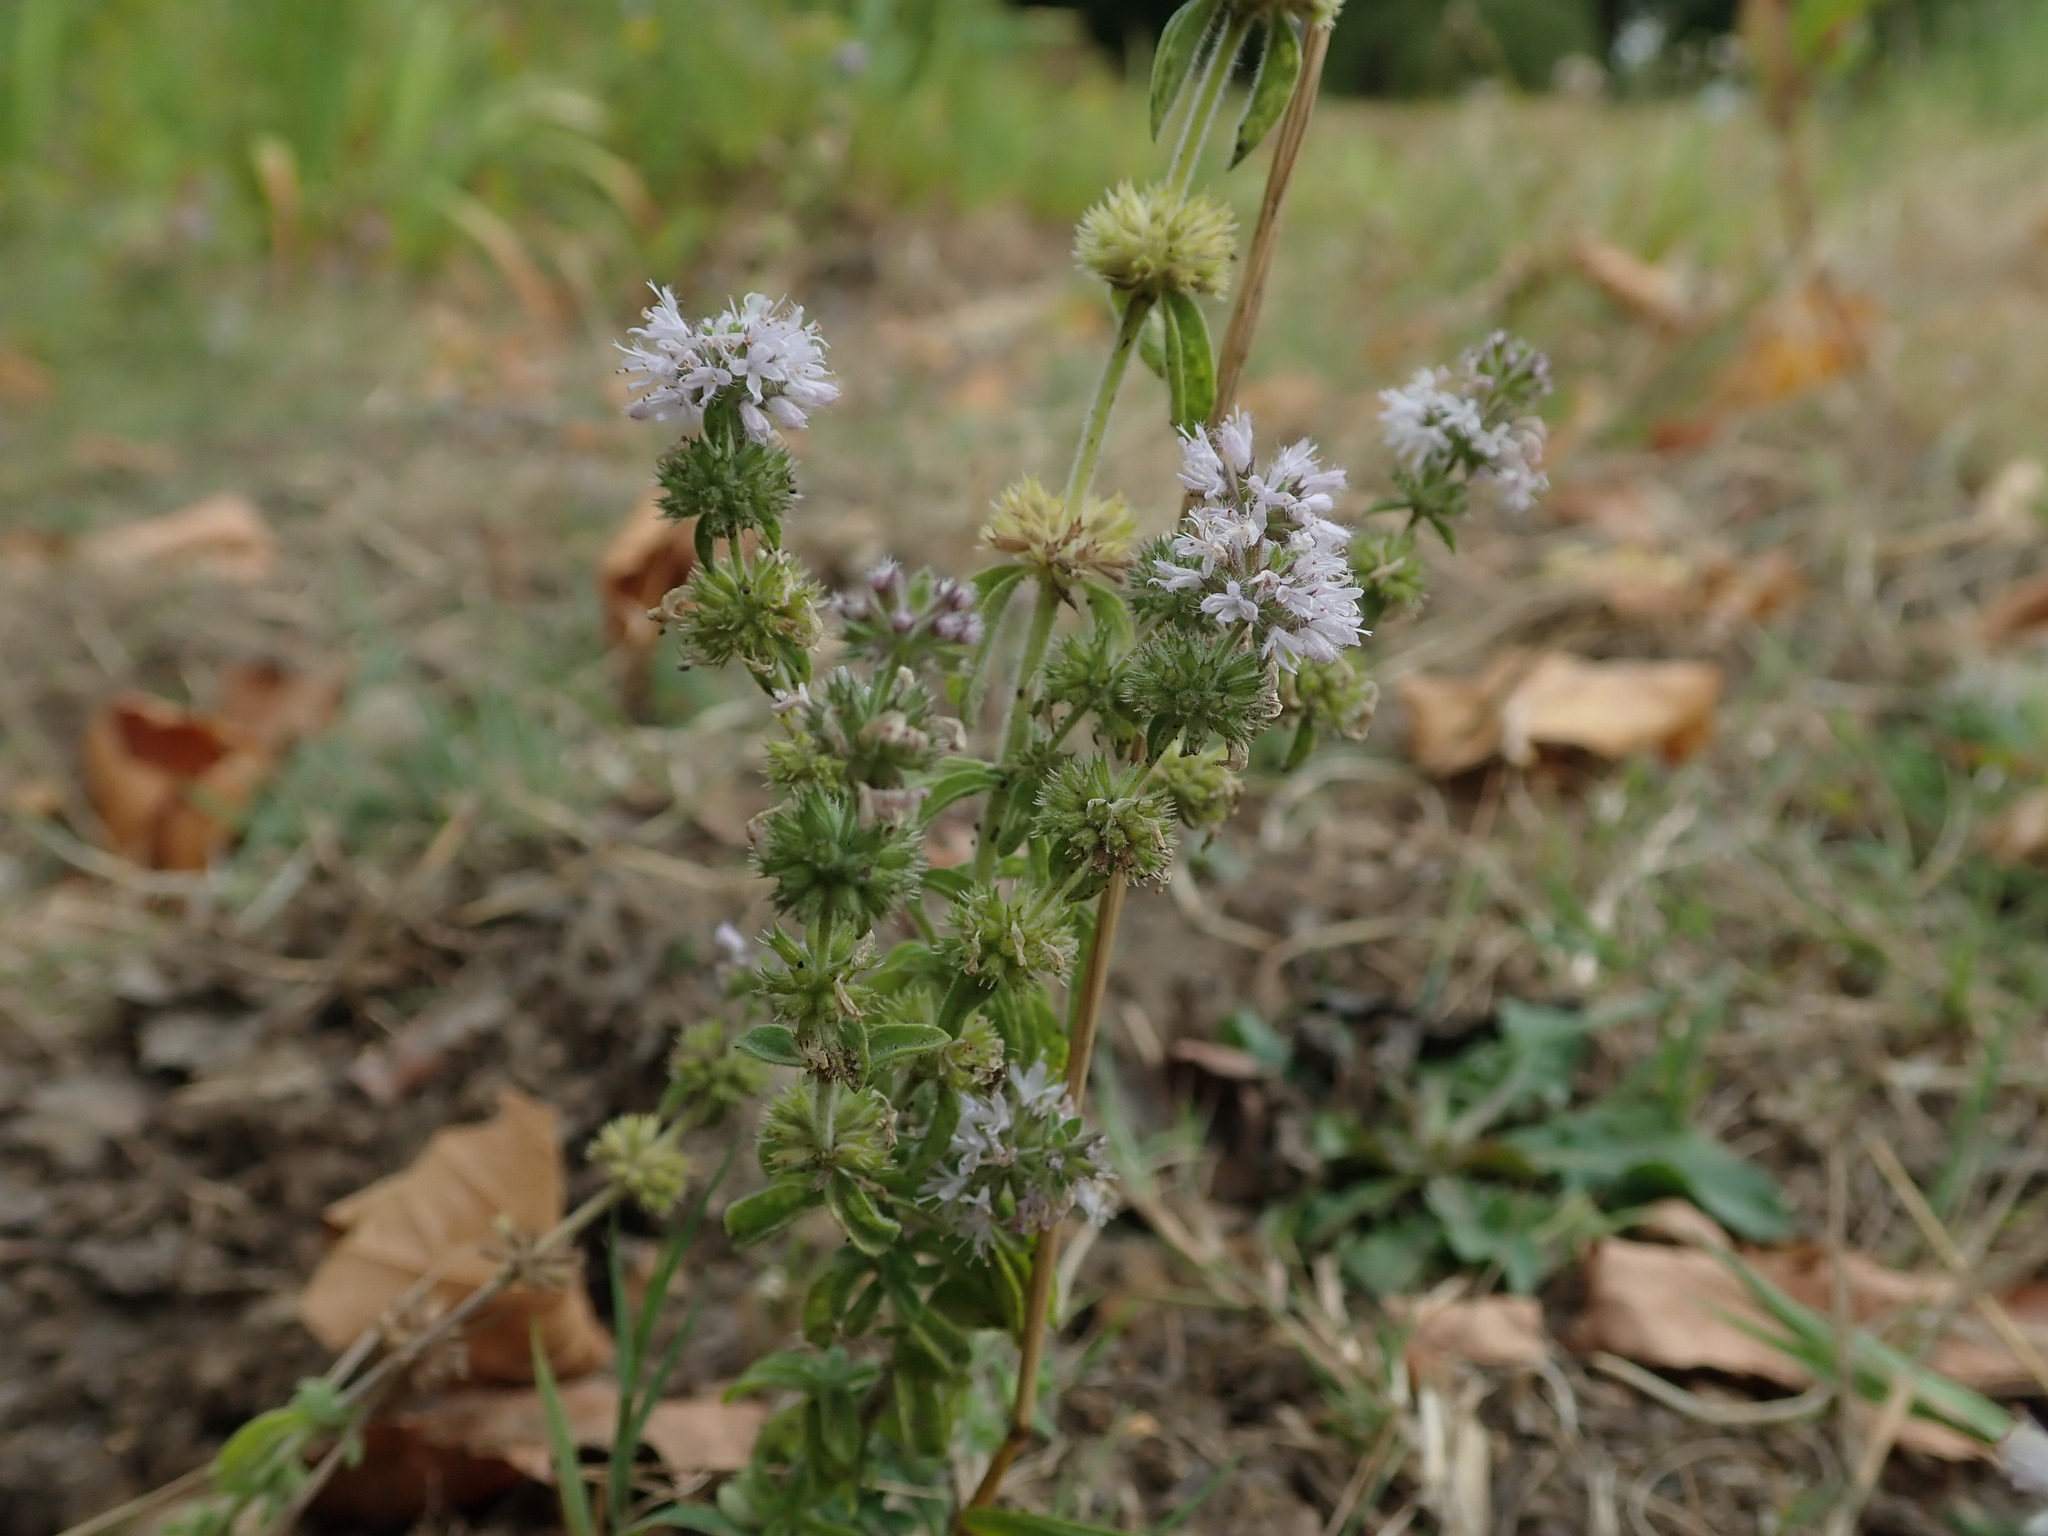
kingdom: Plantae
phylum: Tracheophyta
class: Magnoliopsida
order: Lamiales
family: Lamiaceae
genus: Mentha
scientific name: Mentha pulegium
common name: Pennyroyal
